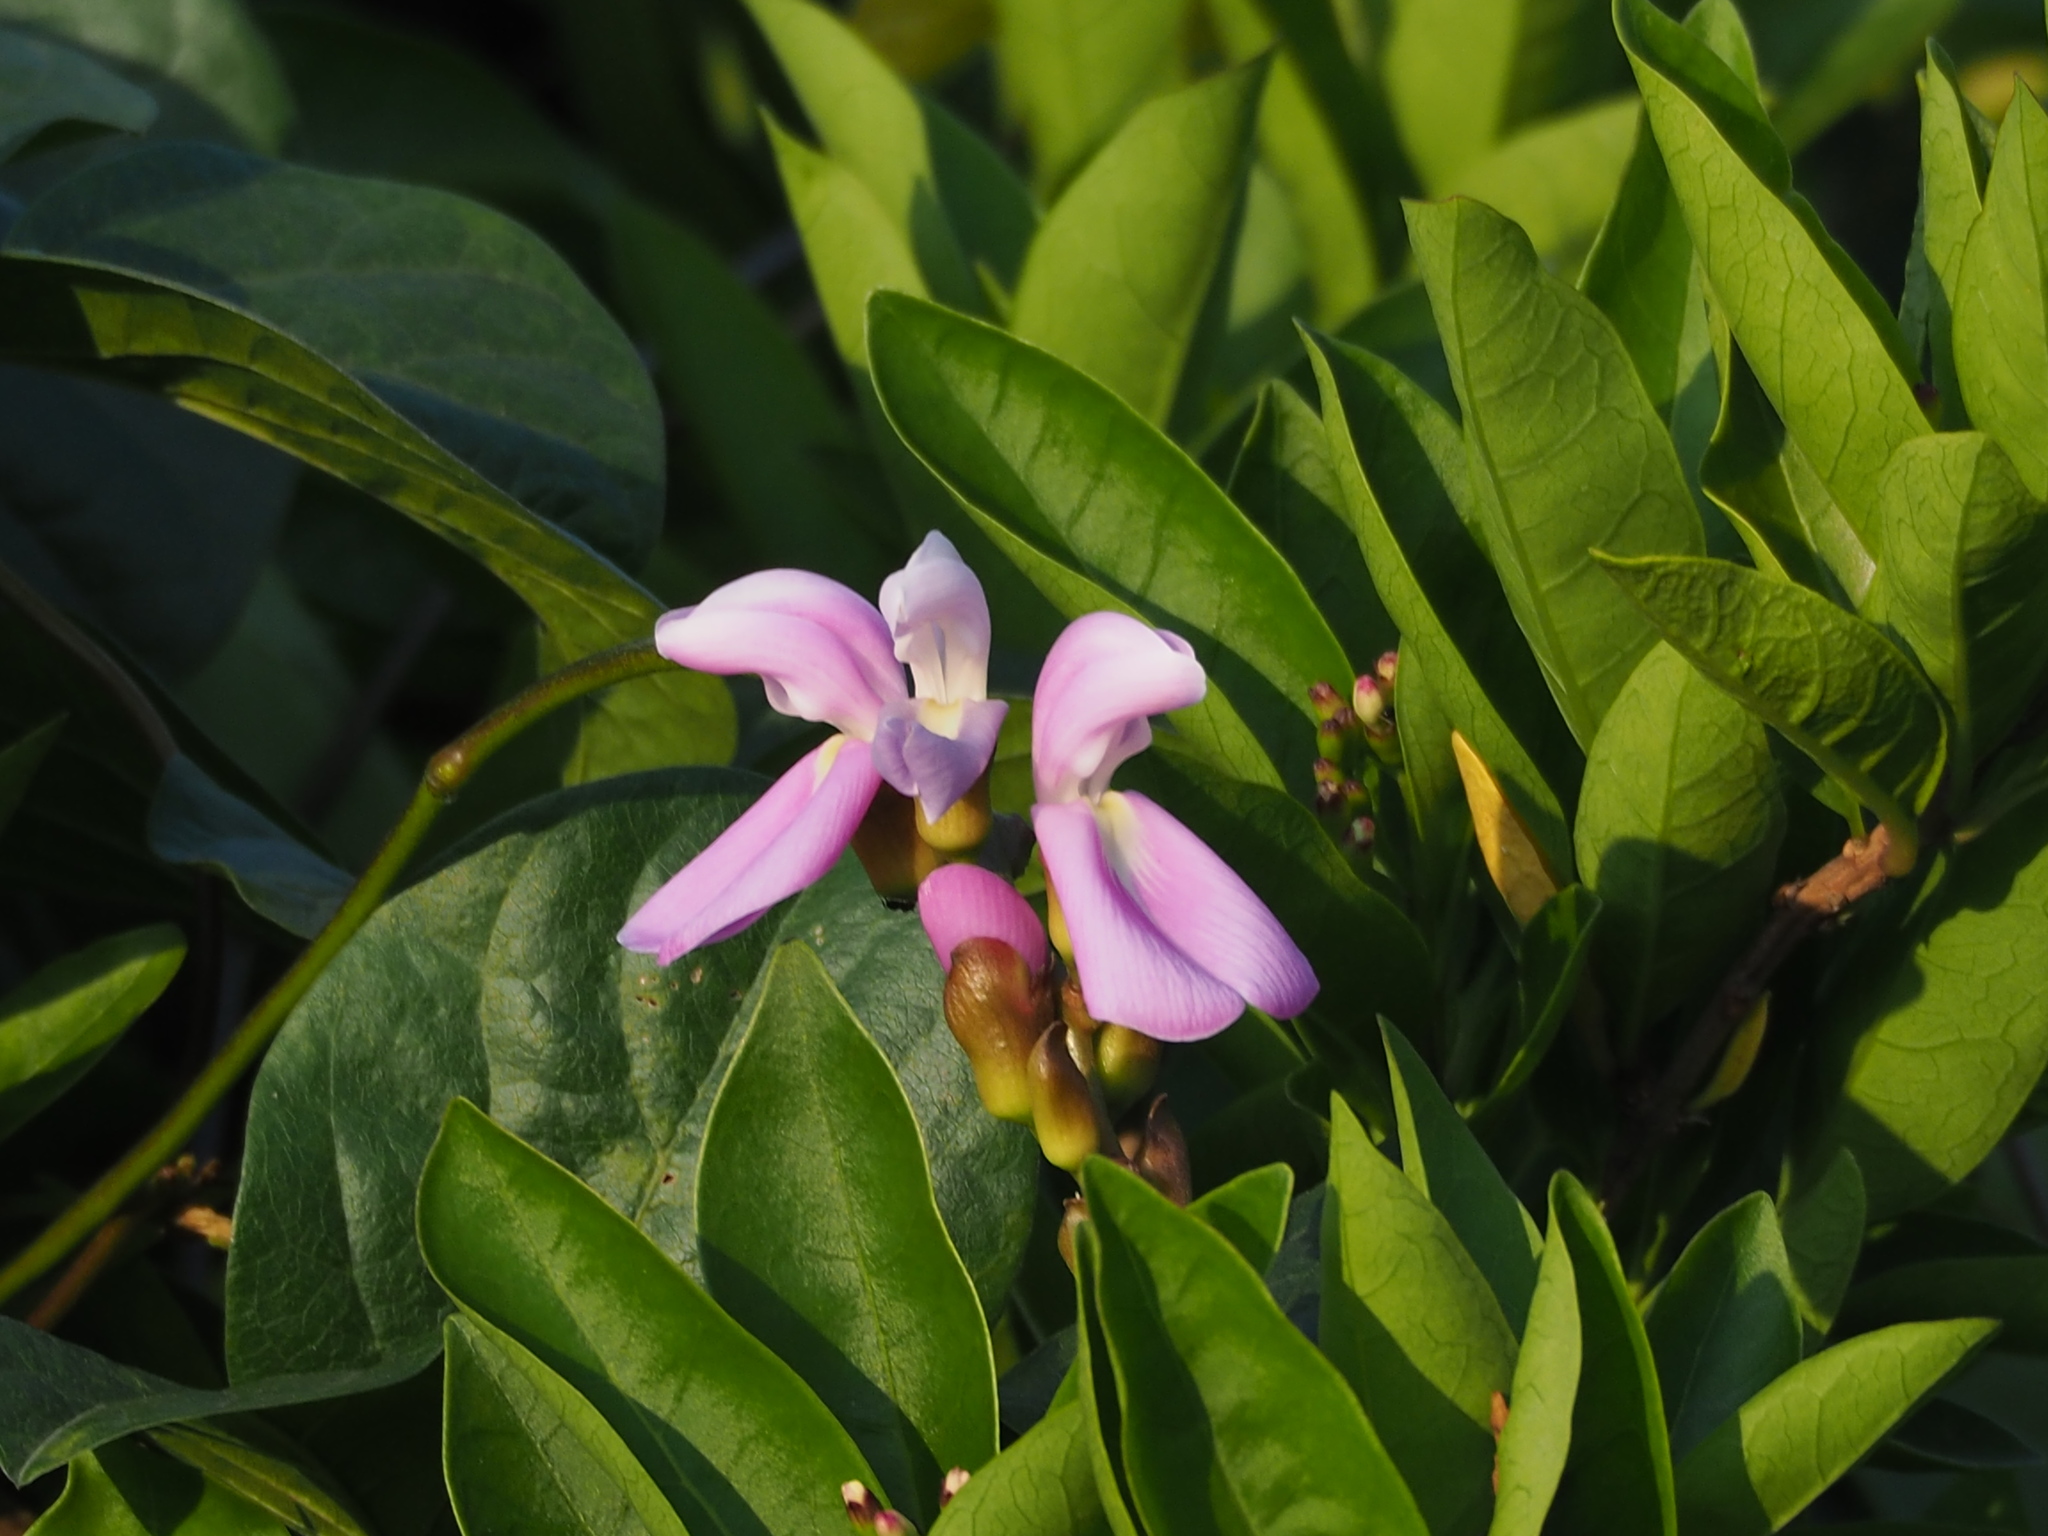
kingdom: Plantae
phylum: Tracheophyta
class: Magnoliopsida
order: Fabales
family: Fabaceae
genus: Canavalia
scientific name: Canavalia lineata
